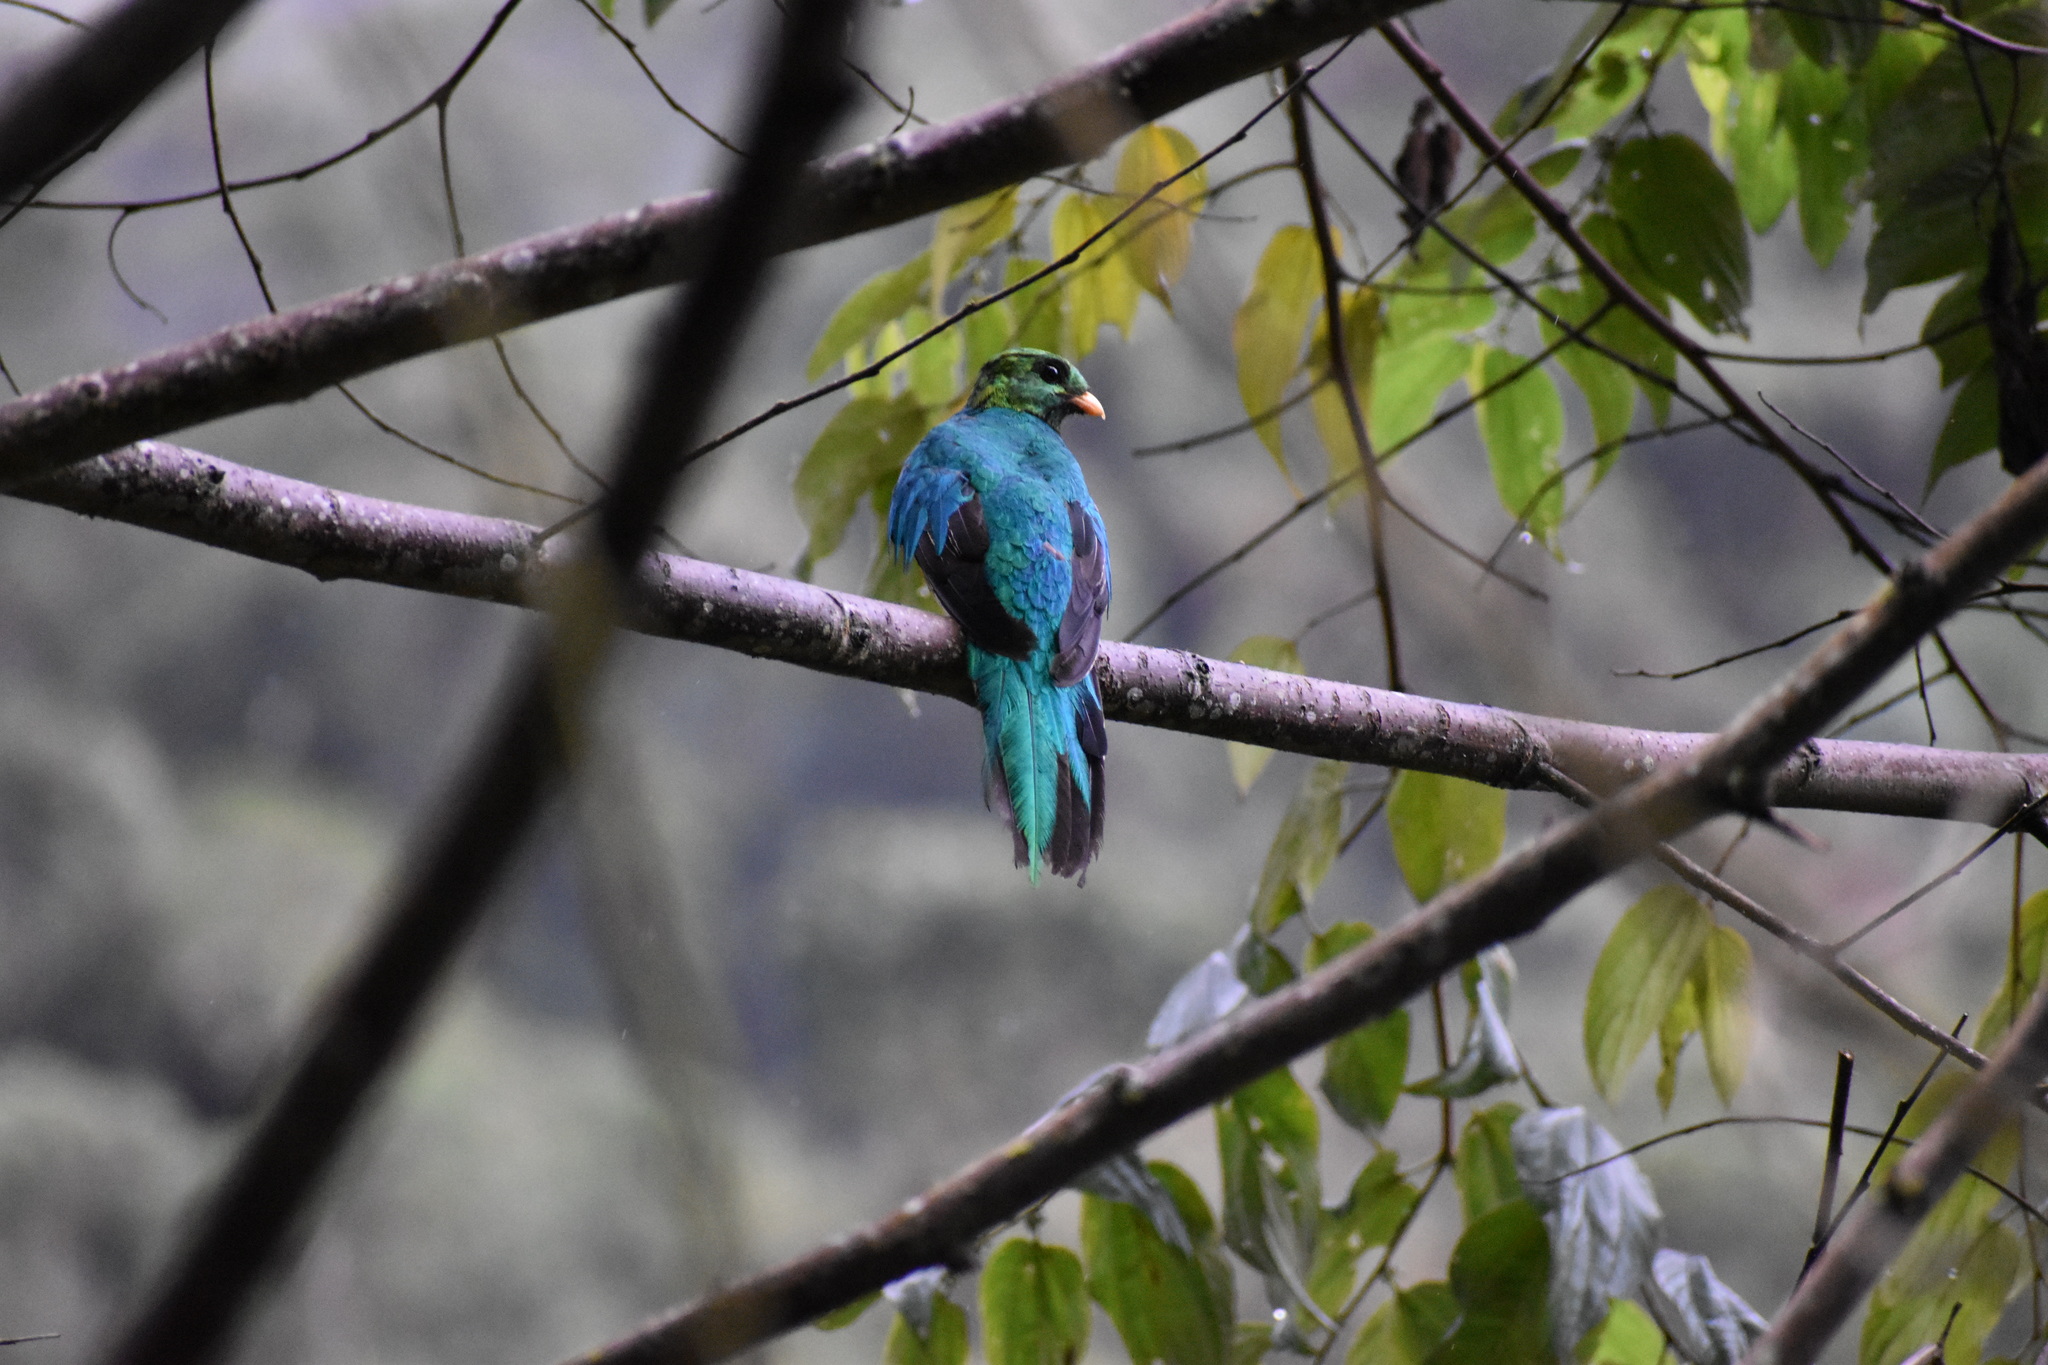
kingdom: Animalia
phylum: Chordata
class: Aves
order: Trogoniformes
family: Trogonidae
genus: Pharomachrus
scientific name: Pharomachrus auriceps
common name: Golden-headed quetzal
